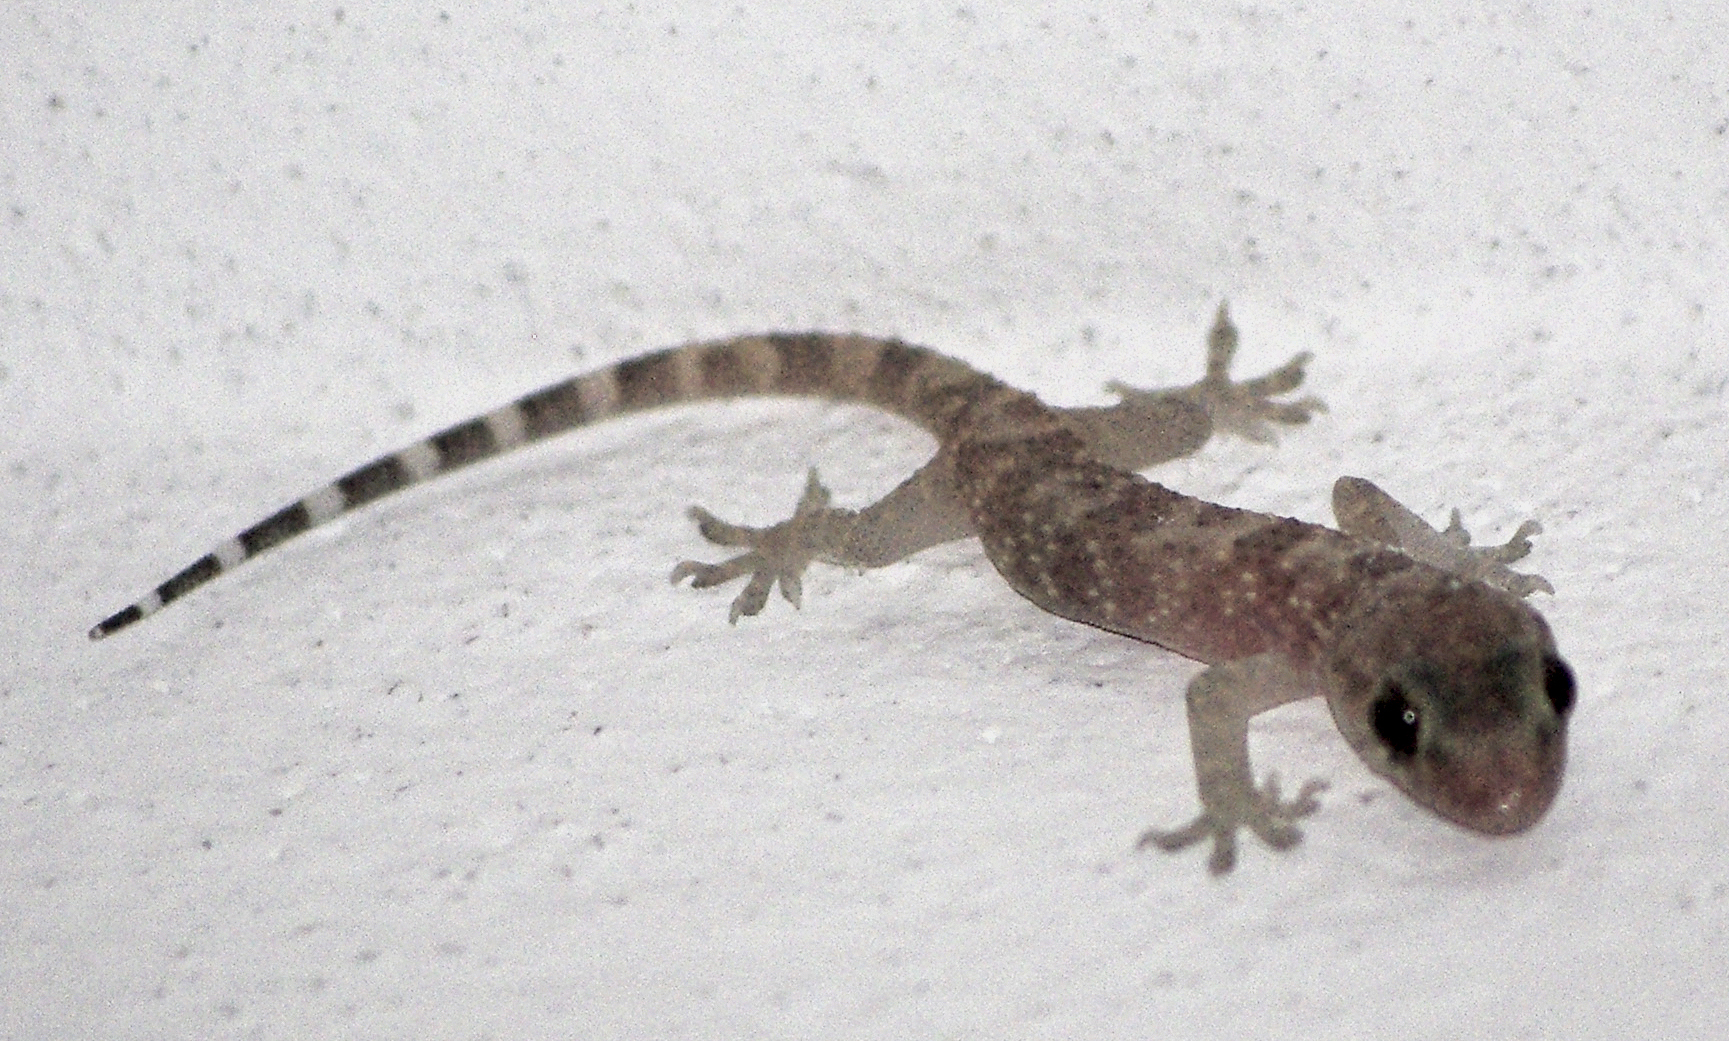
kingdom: Animalia
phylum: Chordata
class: Squamata
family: Gekkonidae
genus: Hemidactylus
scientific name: Hemidactylus turcicus
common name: Turkish gecko
